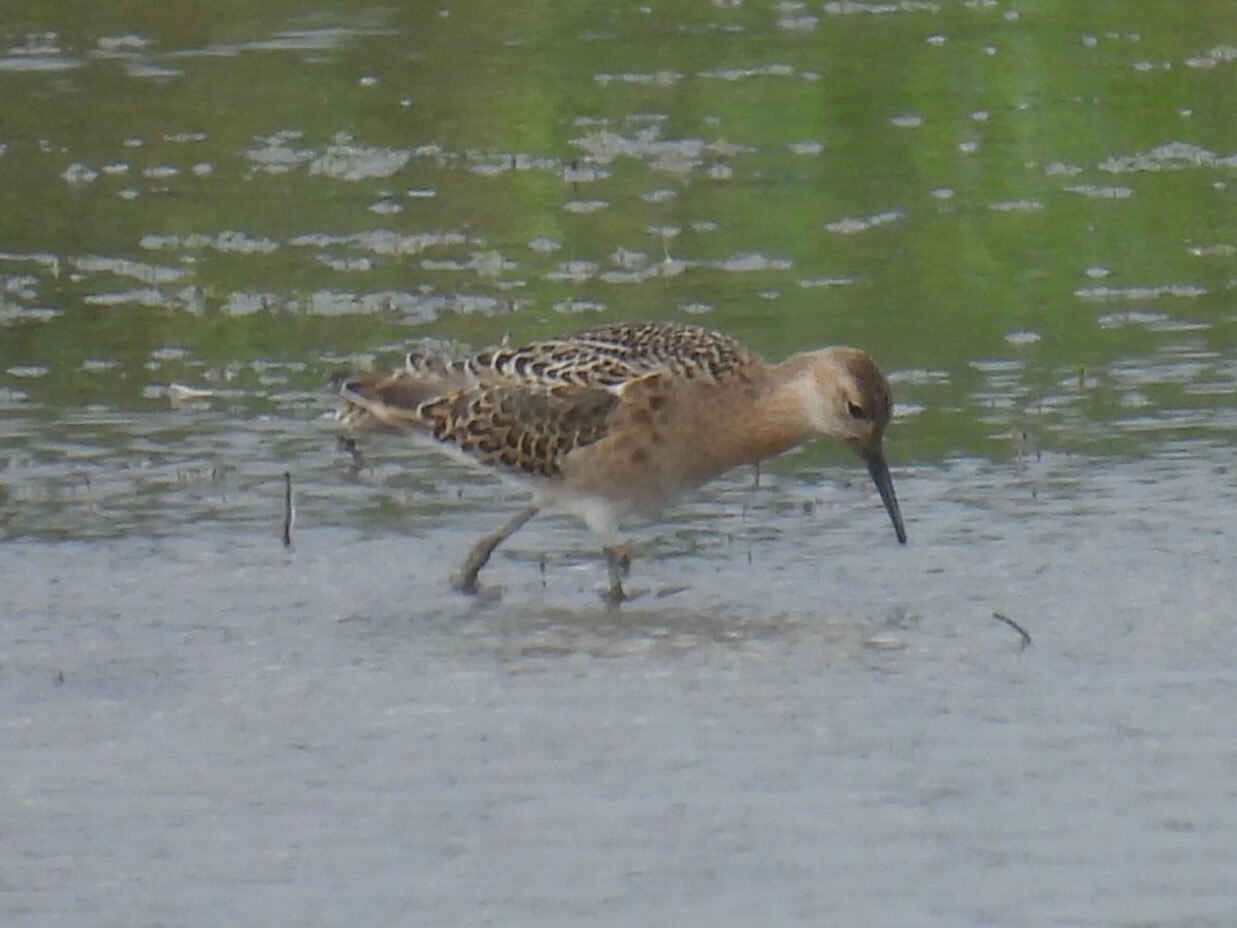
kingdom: Animalia
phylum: Chordata
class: Aves
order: Charadriiformes
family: Scolopacidae
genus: Calidris
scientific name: Calidris pugnax
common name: Ruff
